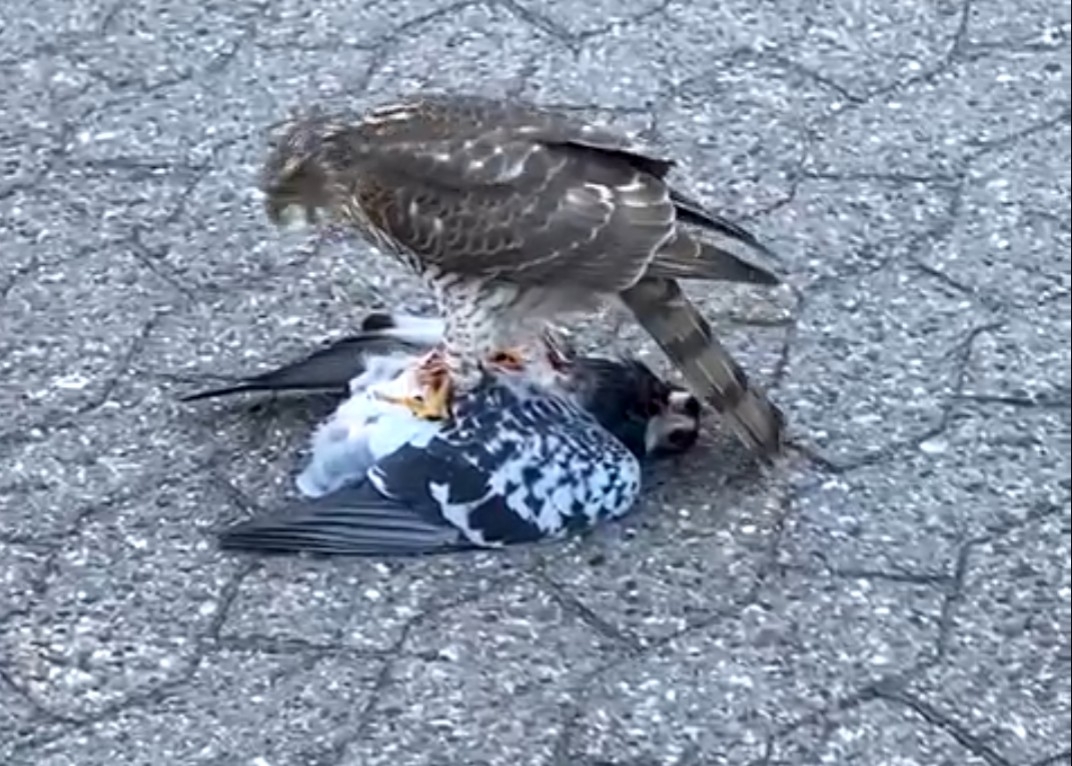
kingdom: Animalia
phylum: Chordata
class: Aves
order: Accipitriformes
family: Accipitridae
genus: Accipiter
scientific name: Accipiter nisus
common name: Eurasian sparrowhawk
